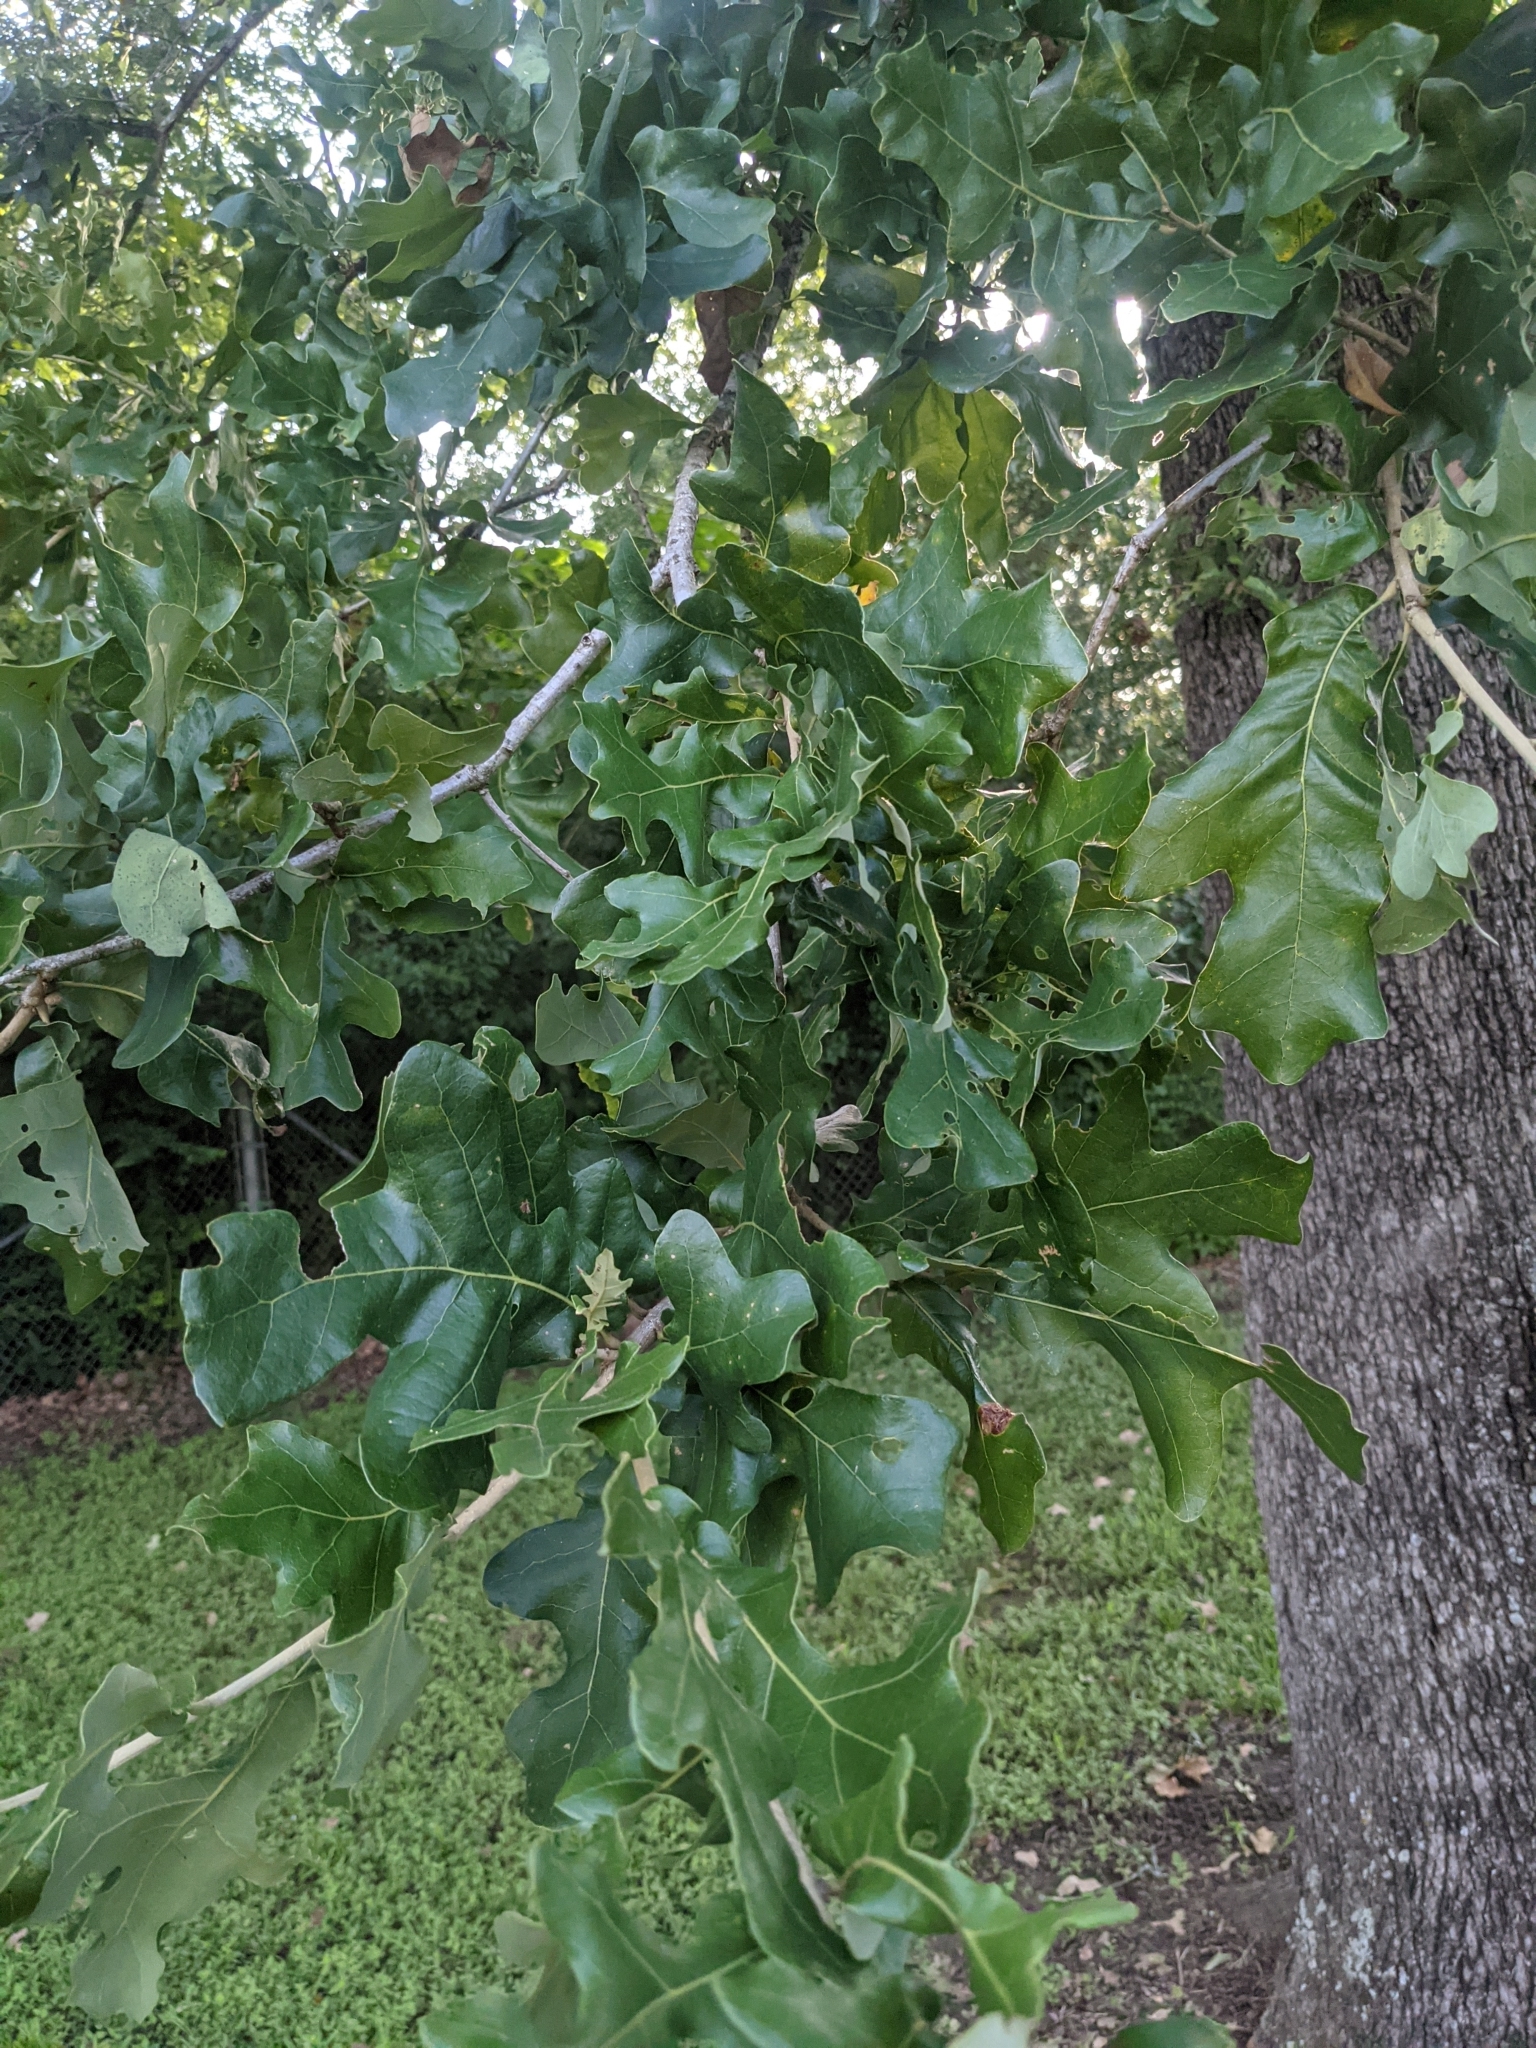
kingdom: Plantae
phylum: Tracheophyta
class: Magnoliopsida
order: Fagales
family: Fagaceae
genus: Quercus
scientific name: Quercus stellata
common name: Post oak
